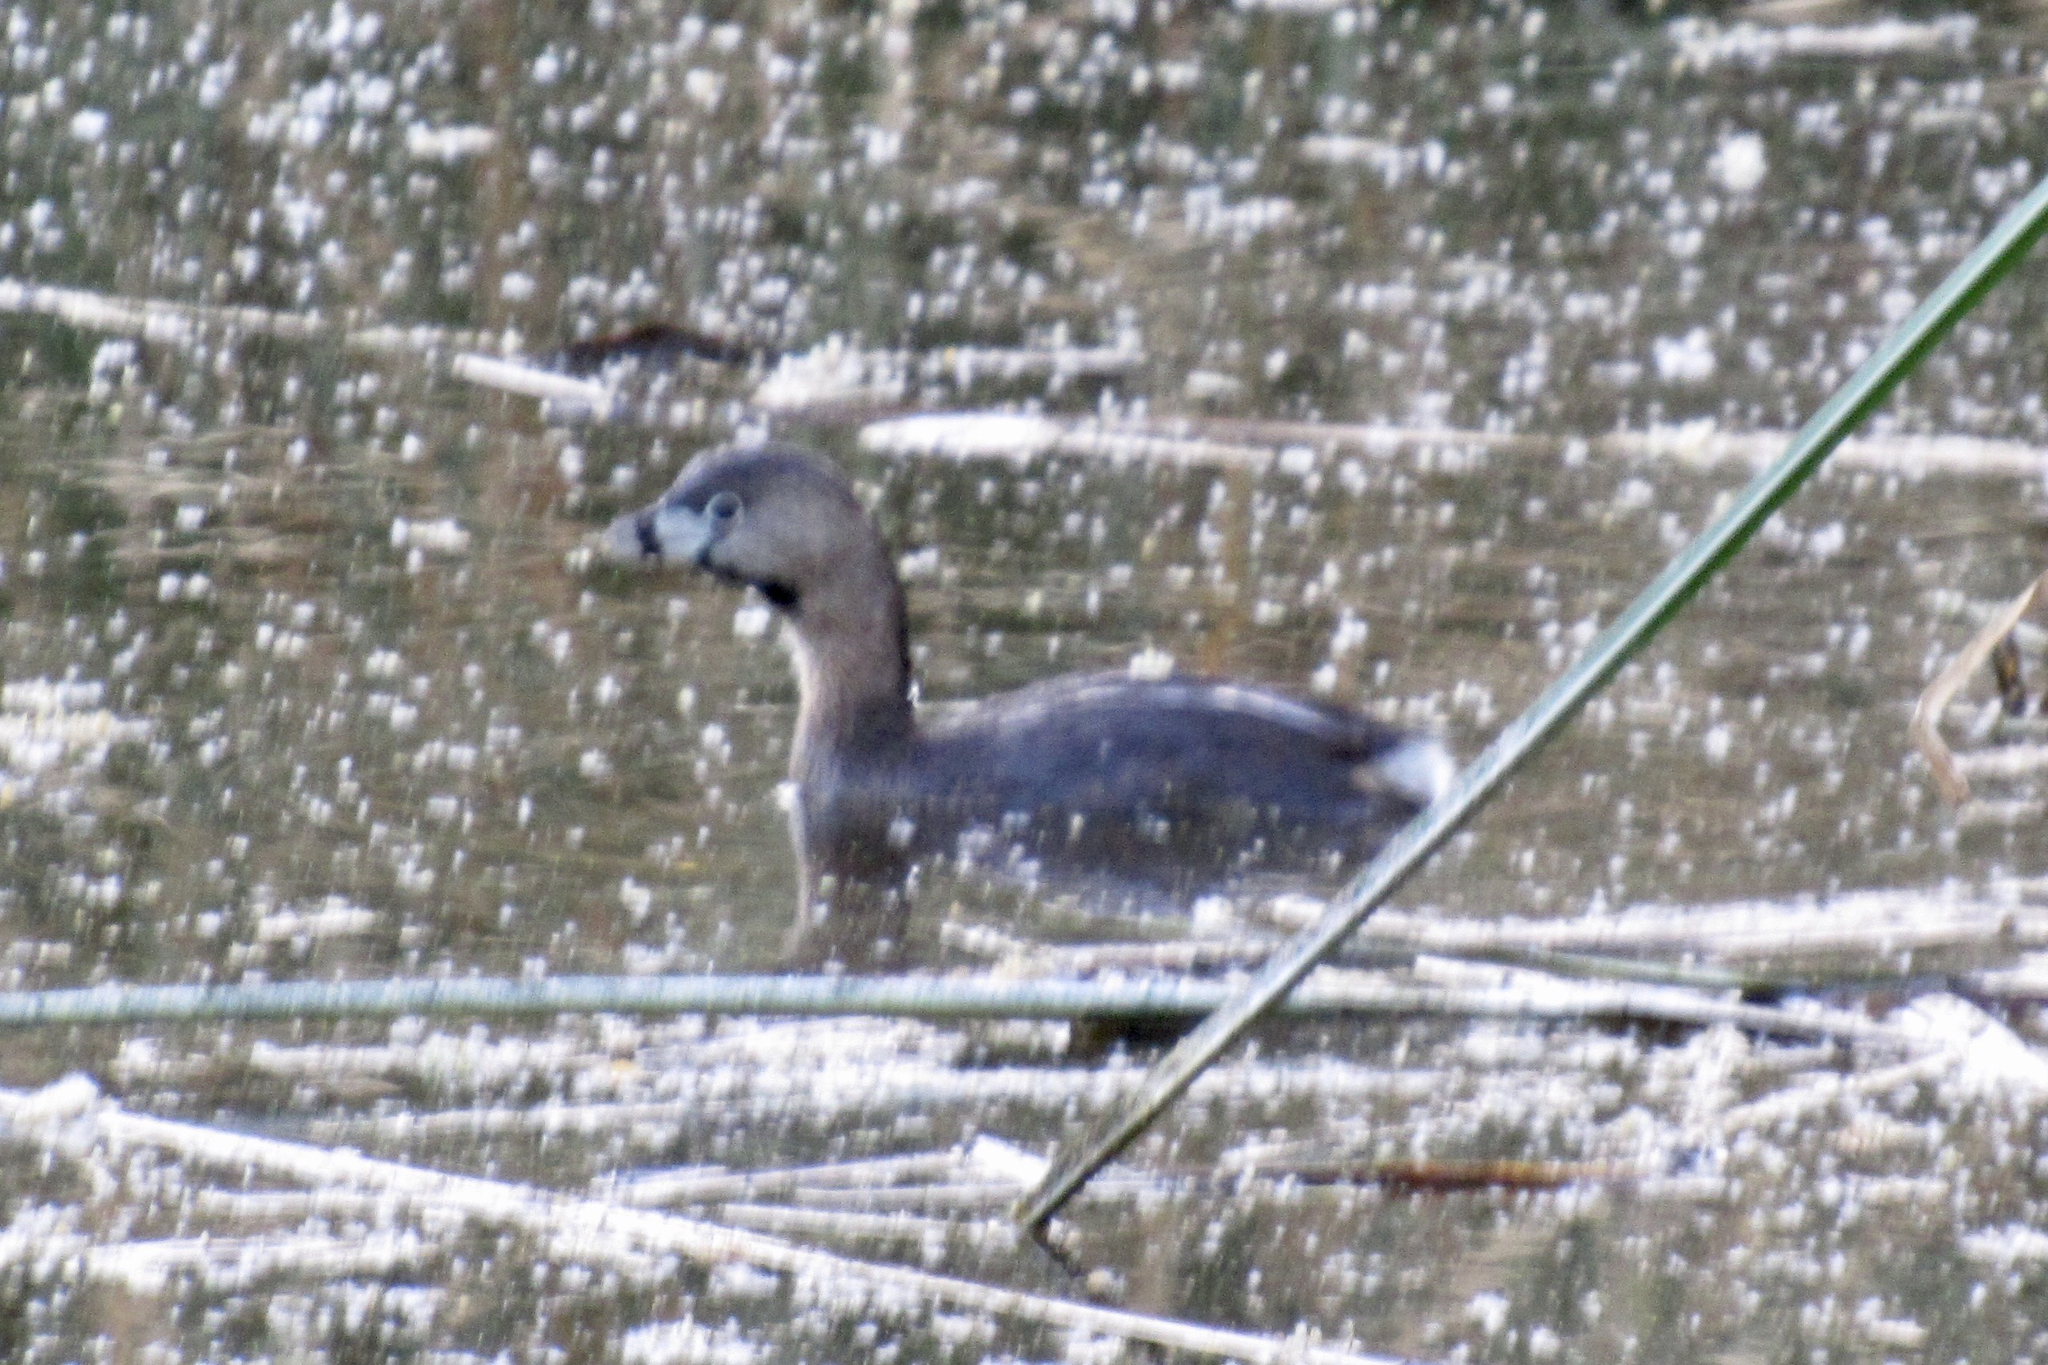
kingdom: Animalia
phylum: Chordata
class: Aves
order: Podicipediformes
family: Podicipedidae
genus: Podilymbus
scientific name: Podilymbus podiceps
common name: Pied-billed grebe
